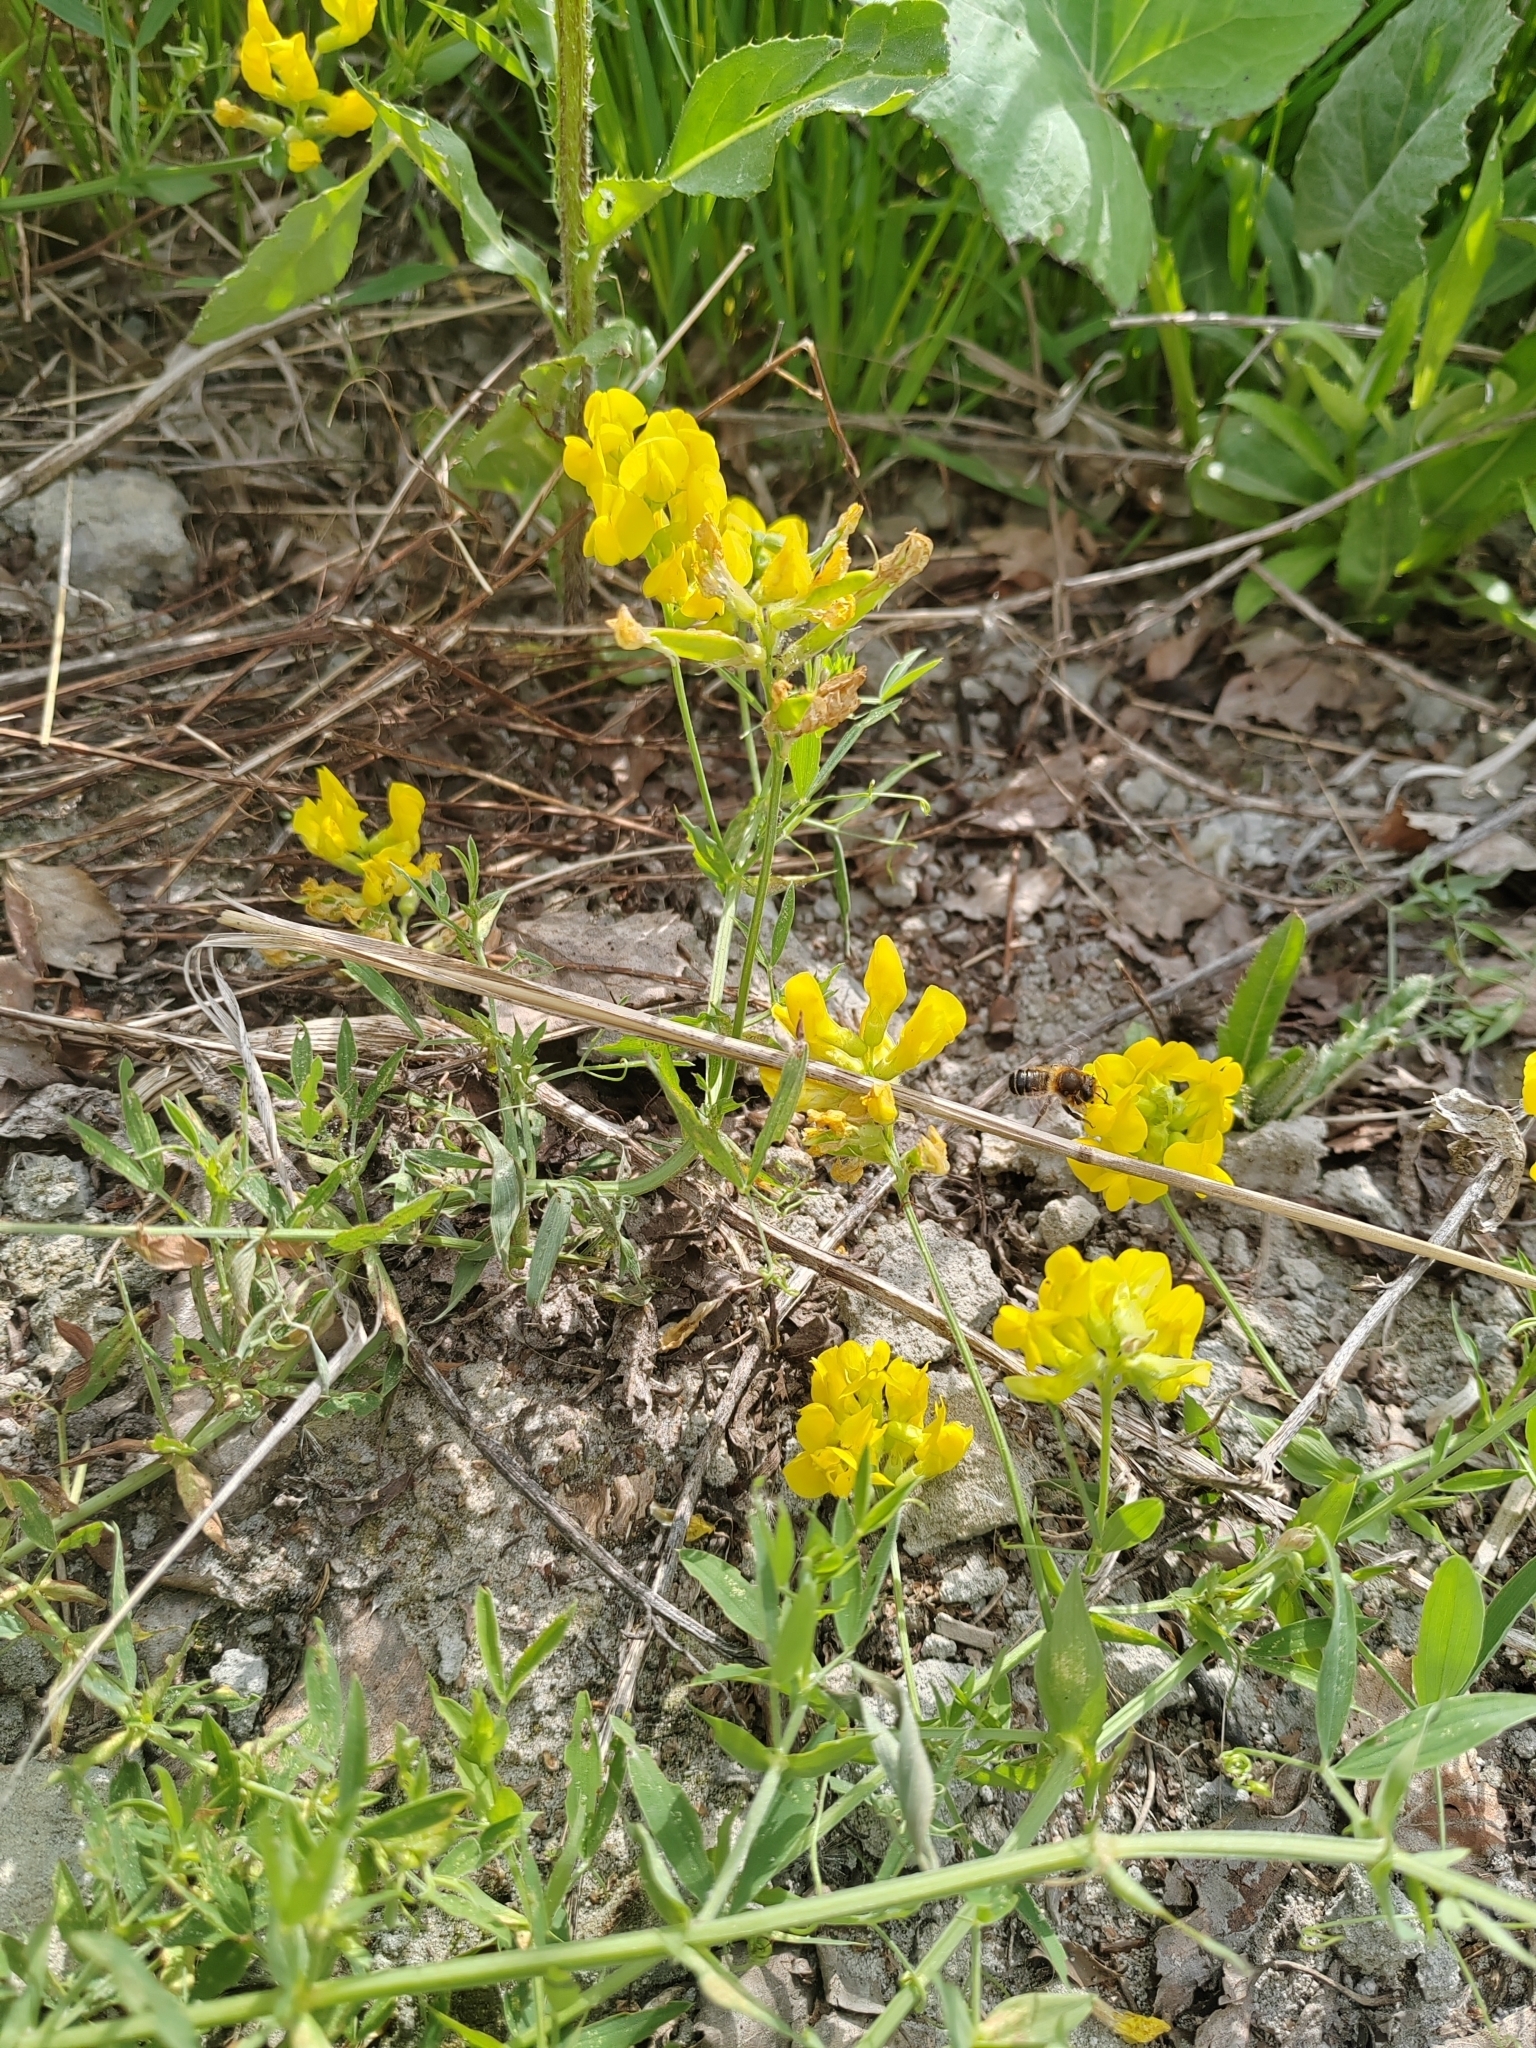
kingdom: Plantae
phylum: Tracheophyta
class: Magnoliopsida
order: Fabales
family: Fabaceae
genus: Lathyrus
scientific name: Lathyrus pratensis
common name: Meadow vetchling
